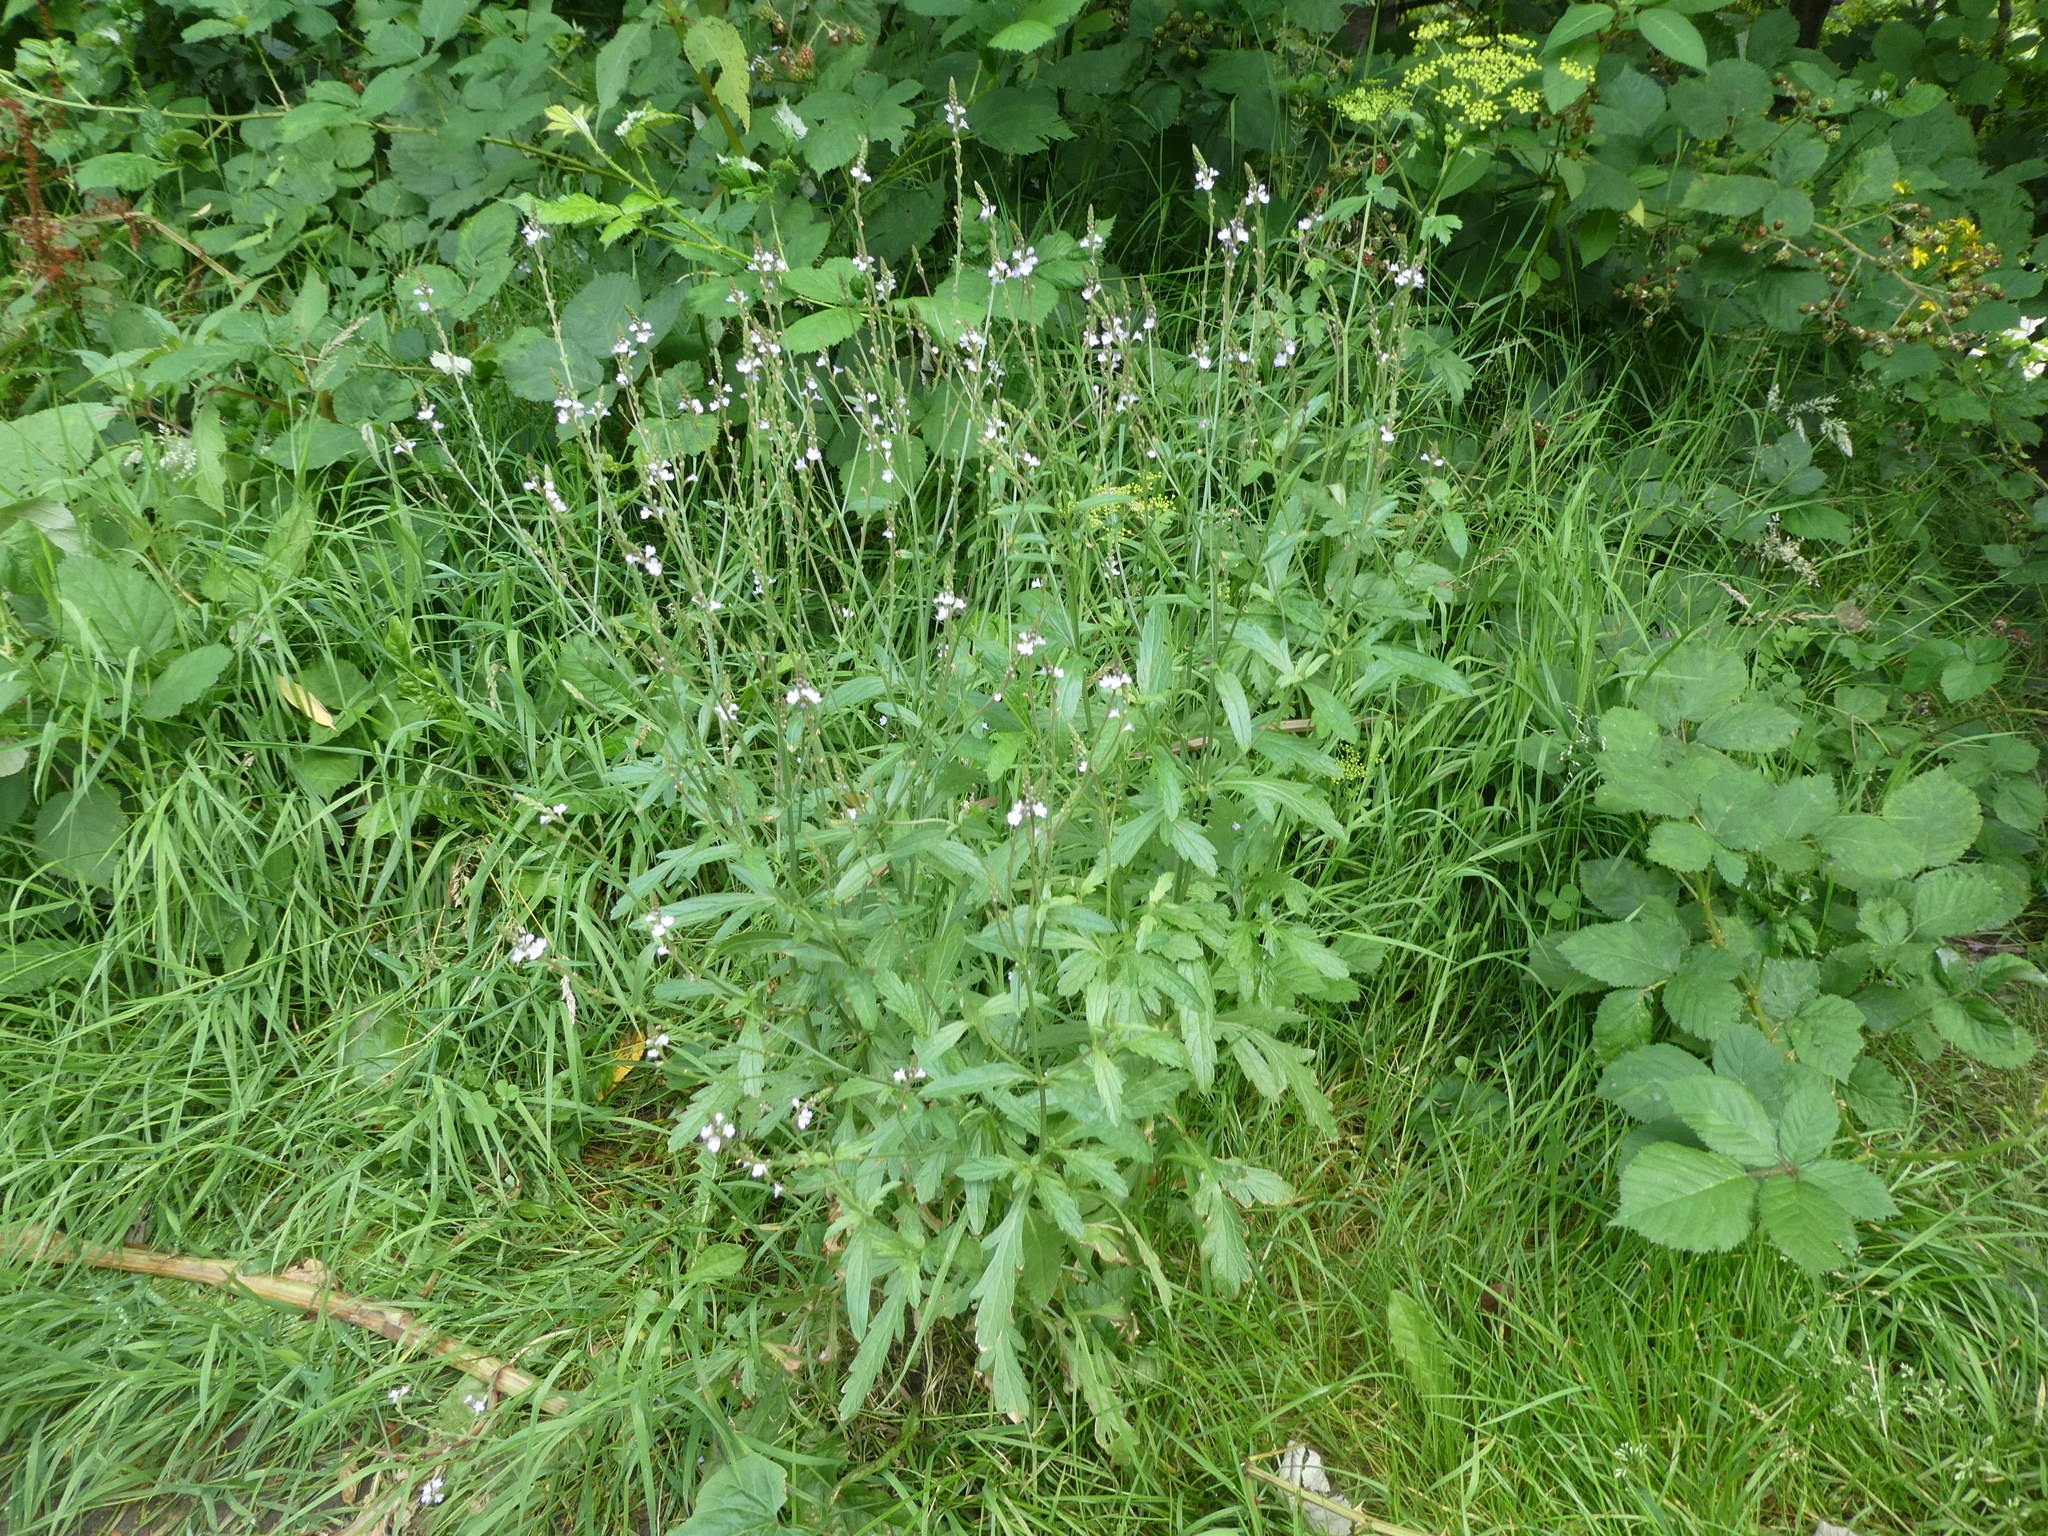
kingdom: Plantae
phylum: Tracheophyta
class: Magnoliopsida
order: Lamiales
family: Verbenaceae
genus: Verbena
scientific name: Verbena officinalis
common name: Vervain
